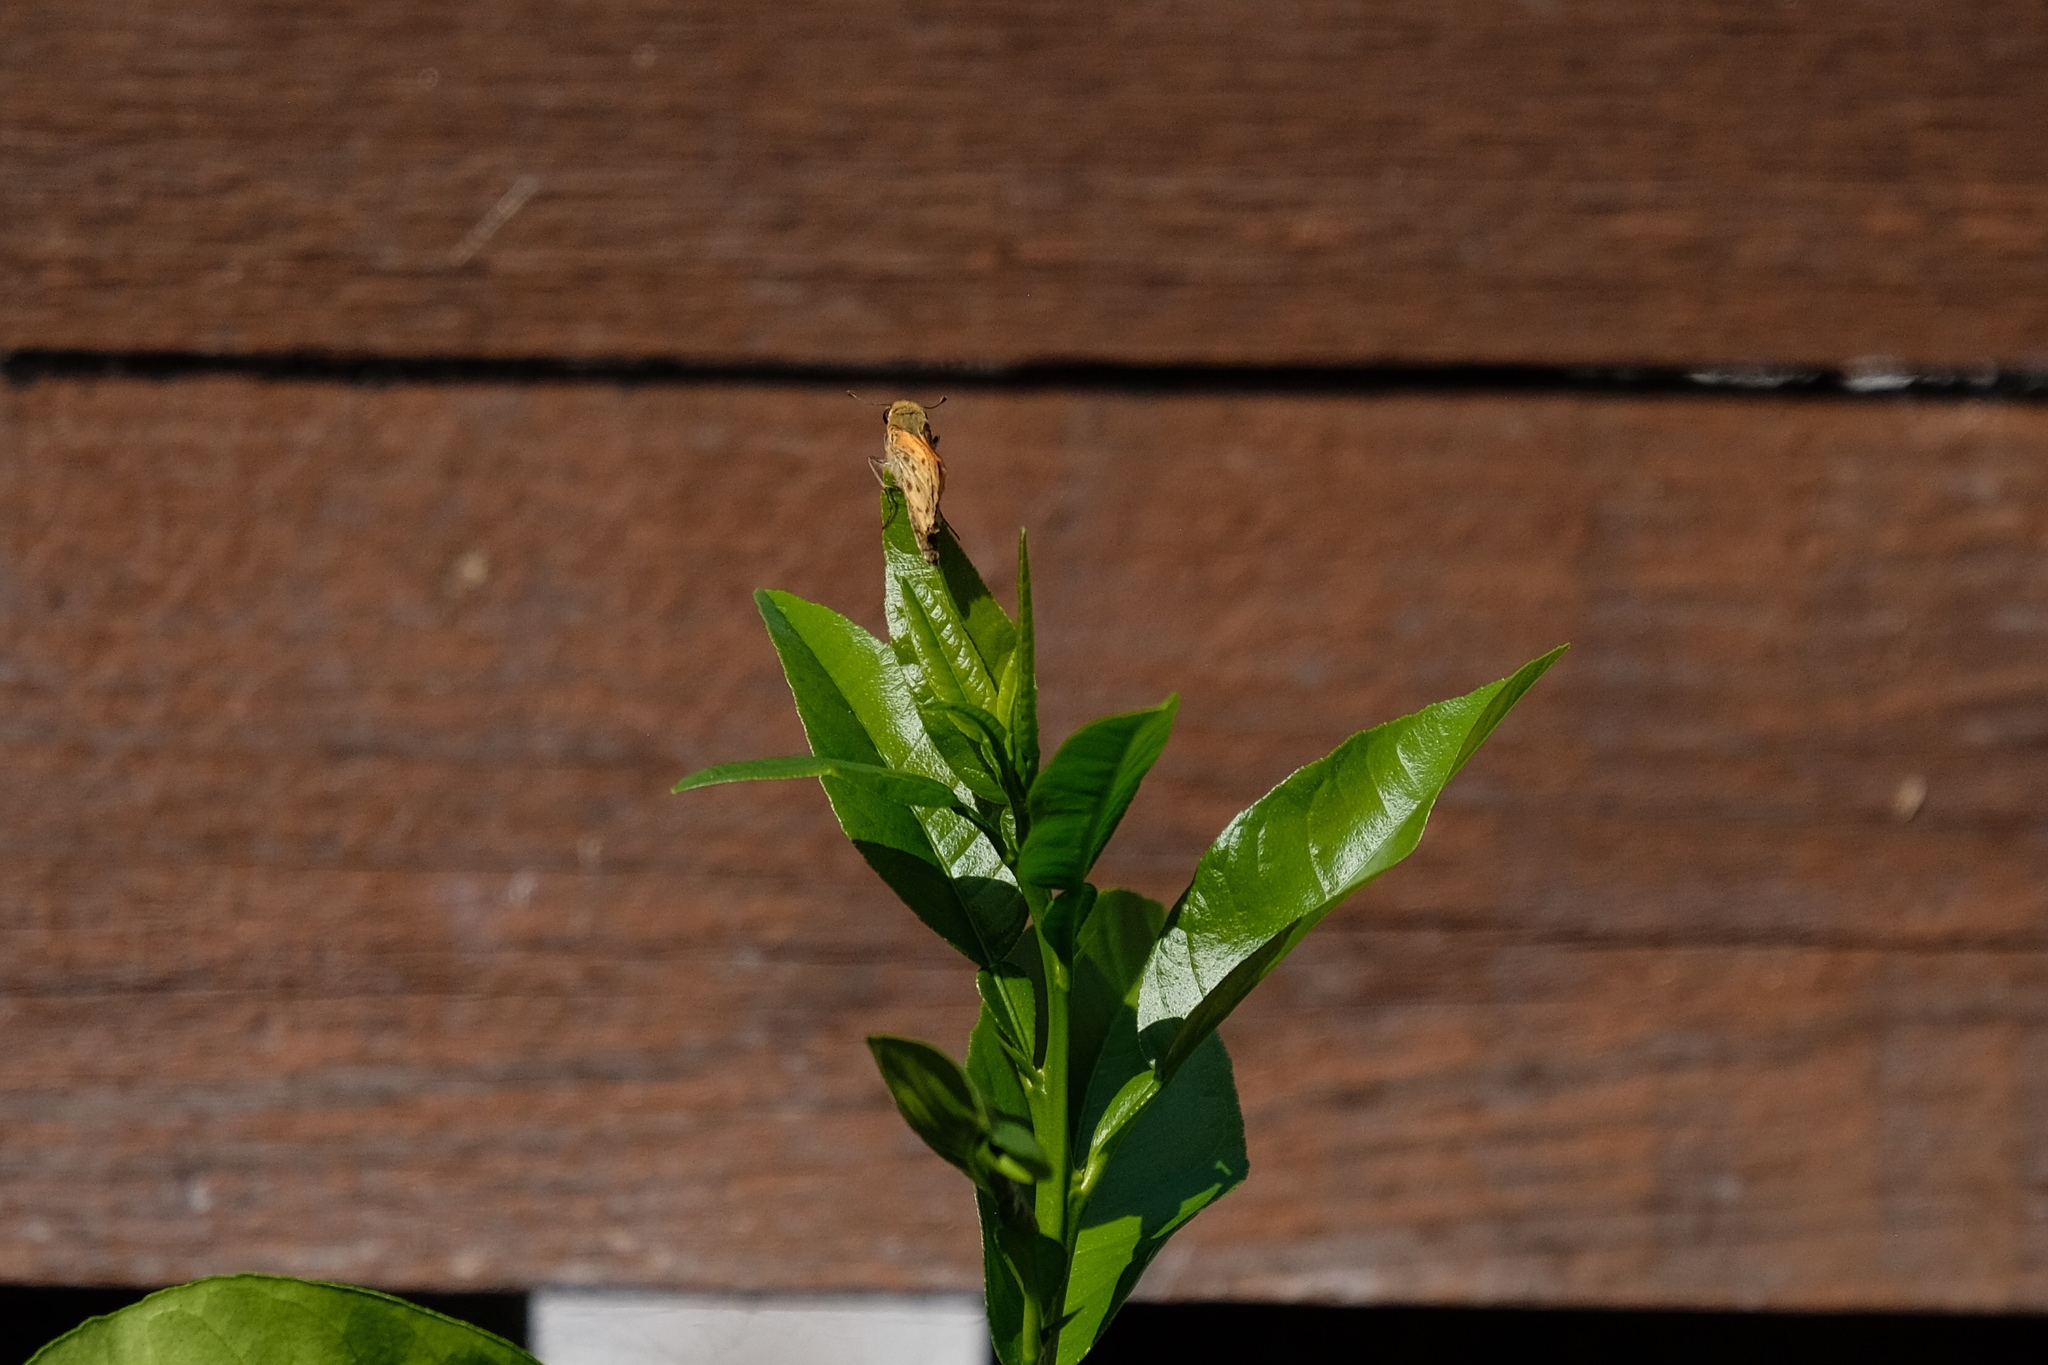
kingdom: Animalia
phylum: Arthropoda
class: Insecta
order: Lepidoptera
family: Hesperiidae
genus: Hylephila
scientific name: Hylephila phyleus
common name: Fiery skipper
